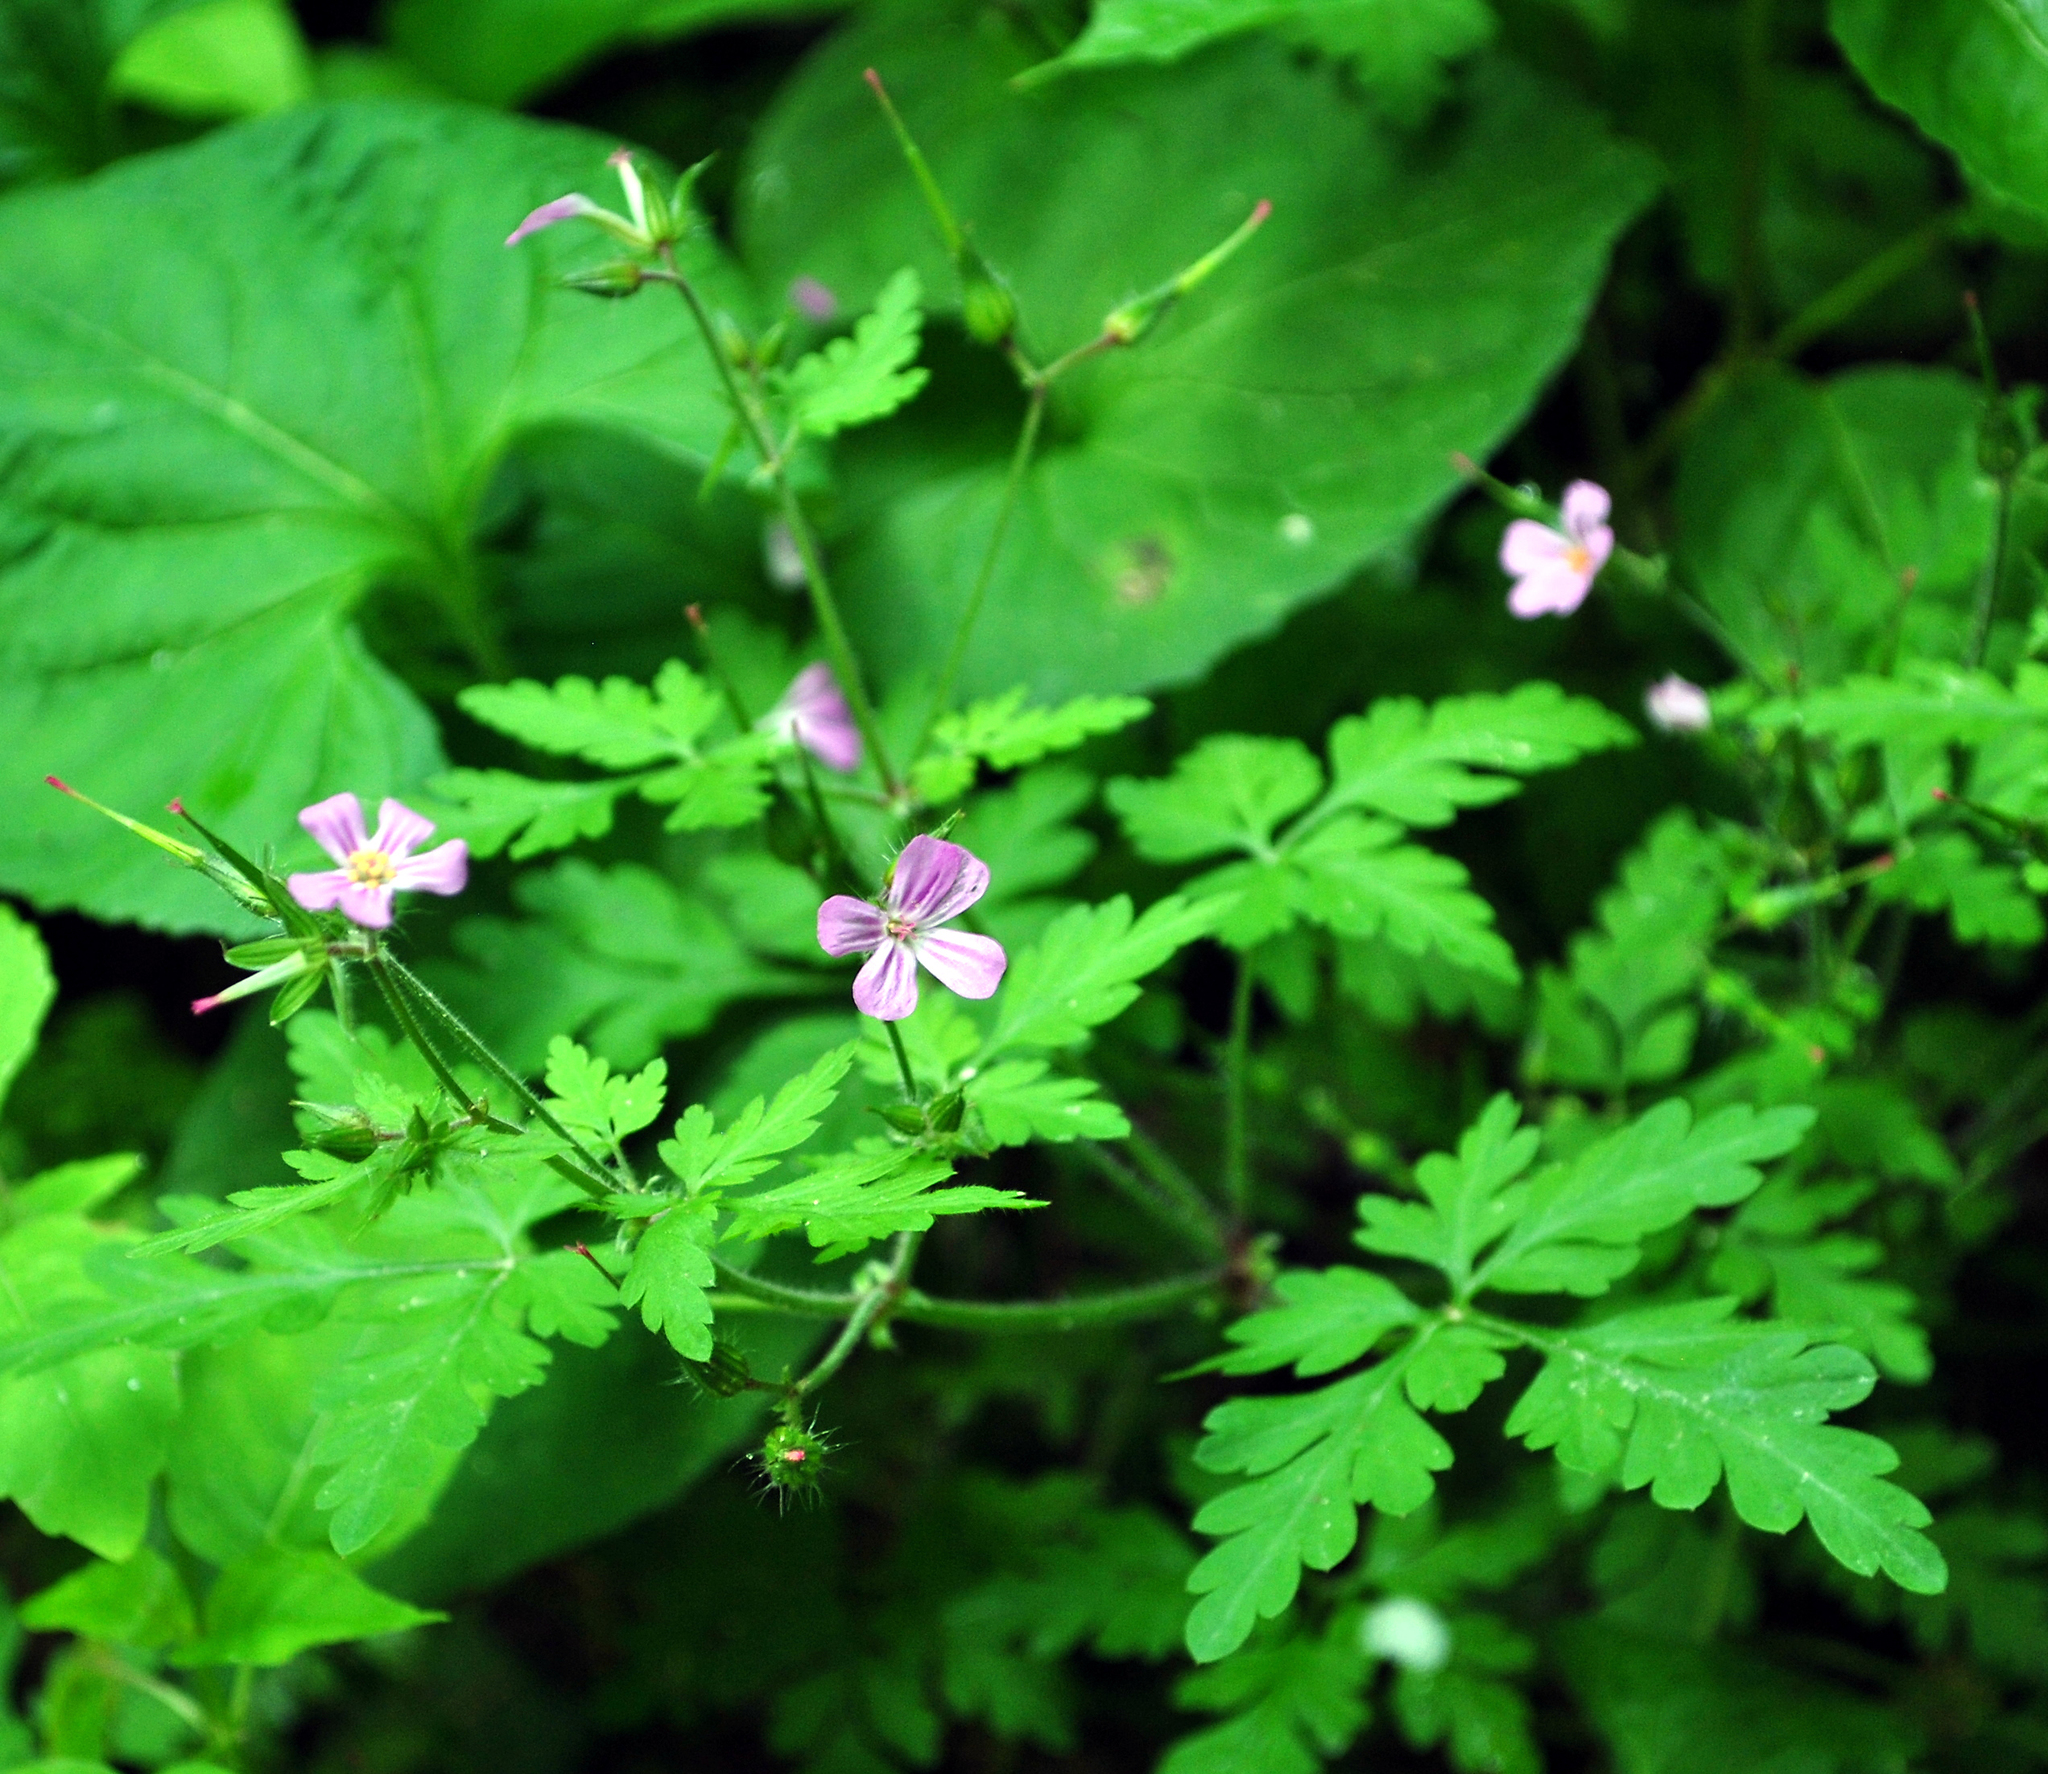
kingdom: Plantae
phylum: Tracheophyta
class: Magnoliopsida
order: Geraniales
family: Geraniaceae
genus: Geranium
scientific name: Geranium robertianum
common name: Herb-robert
